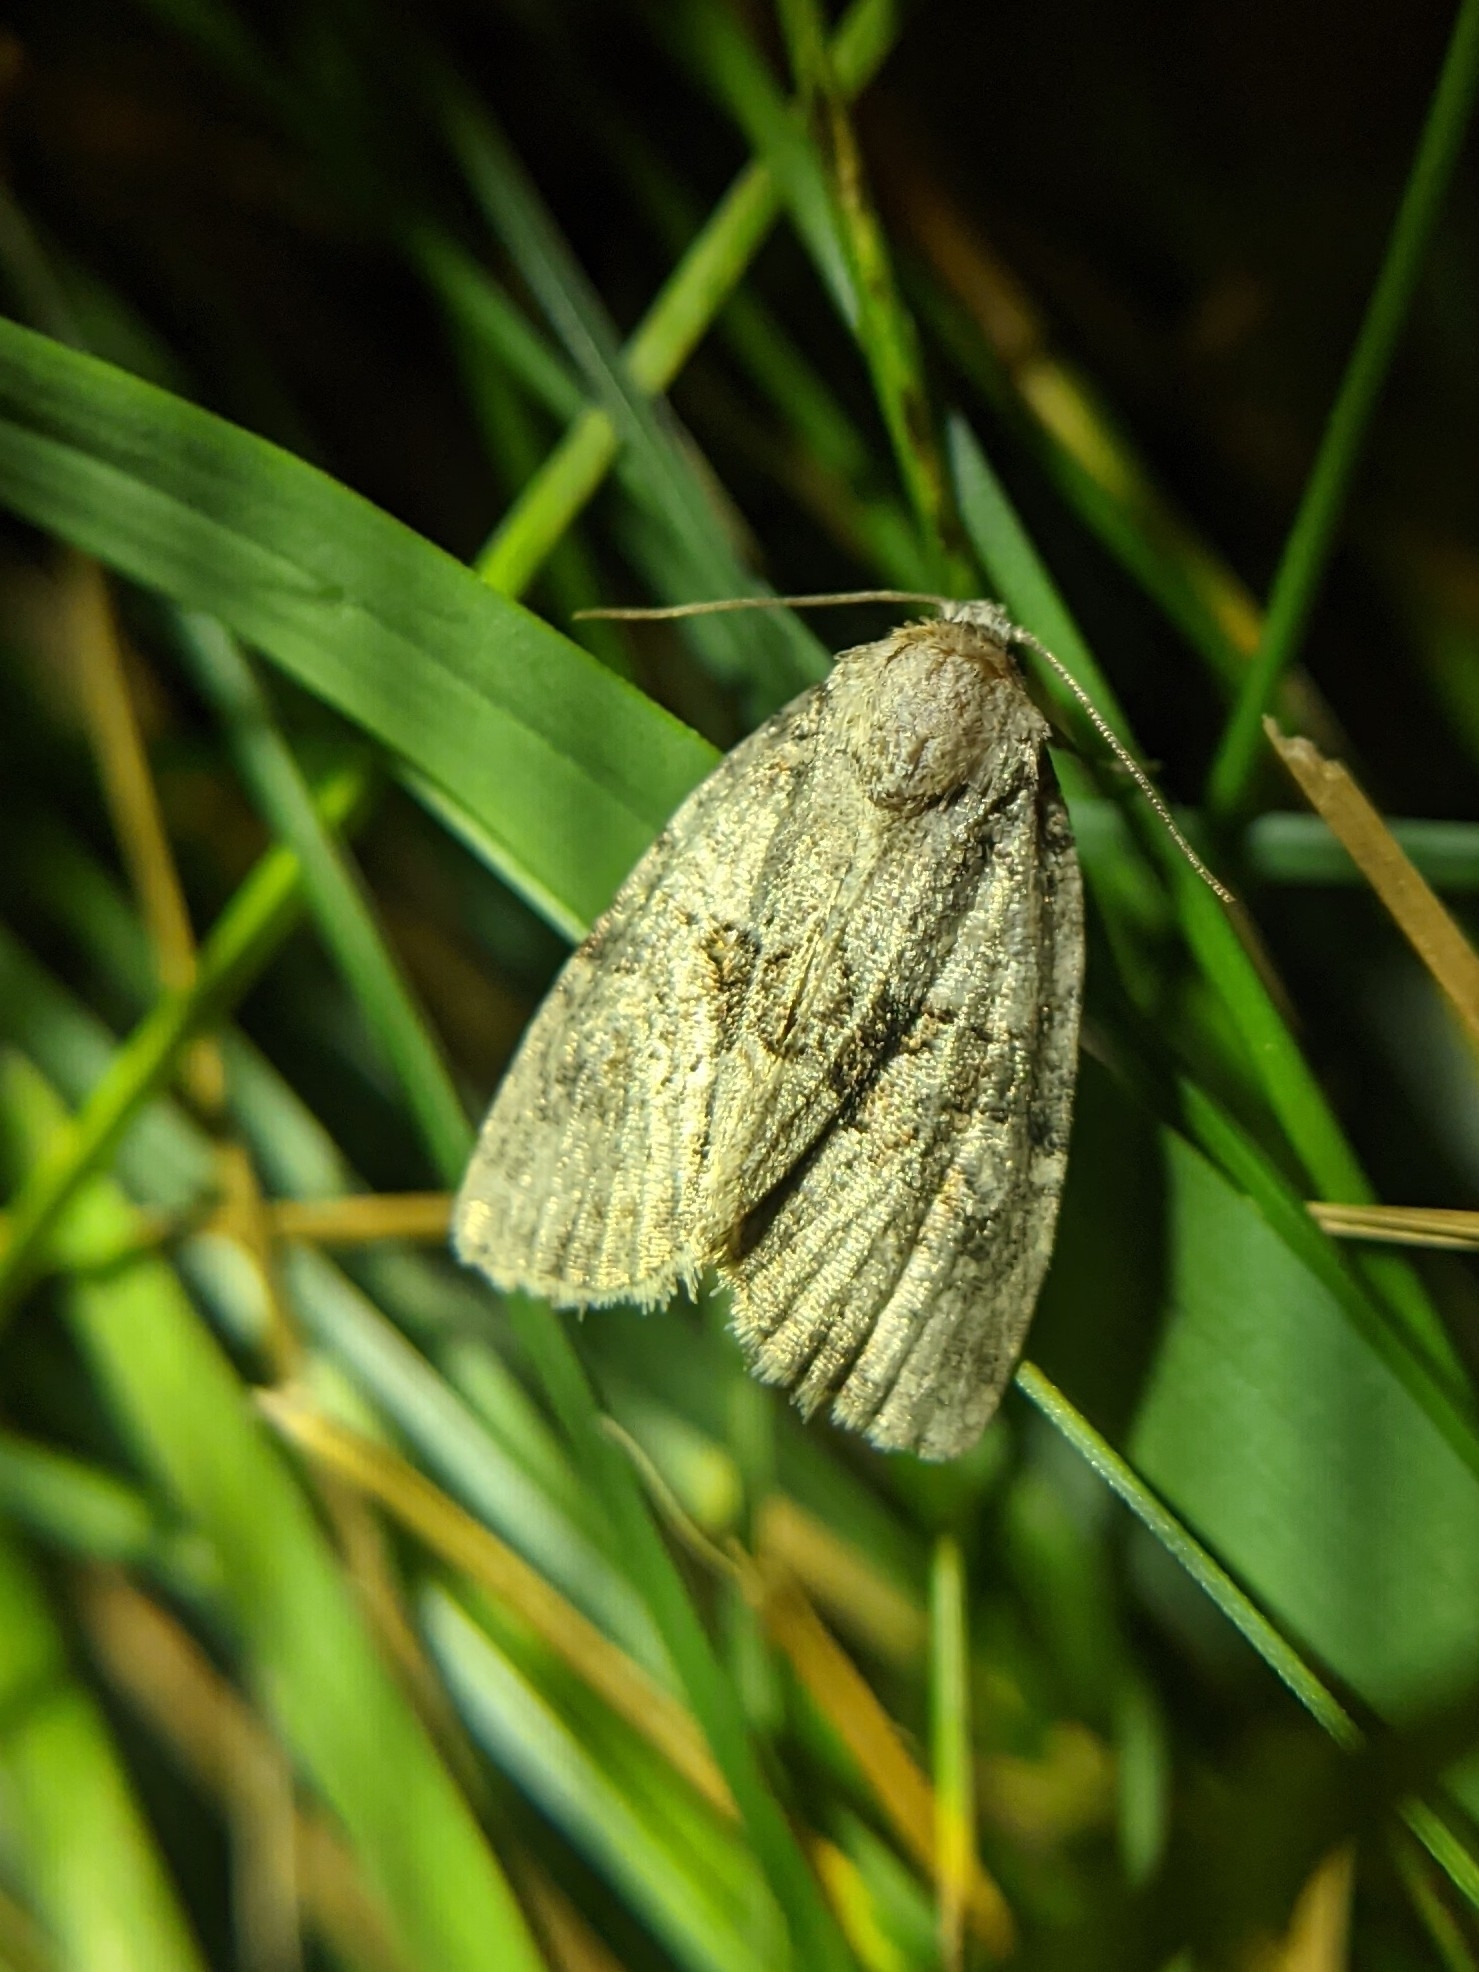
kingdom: Animalia
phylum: Arthropoda
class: Insecta
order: Lepidoptera
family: Noctuidae
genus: Neoligia
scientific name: Neoligia exhausta
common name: Exhausted brocade
